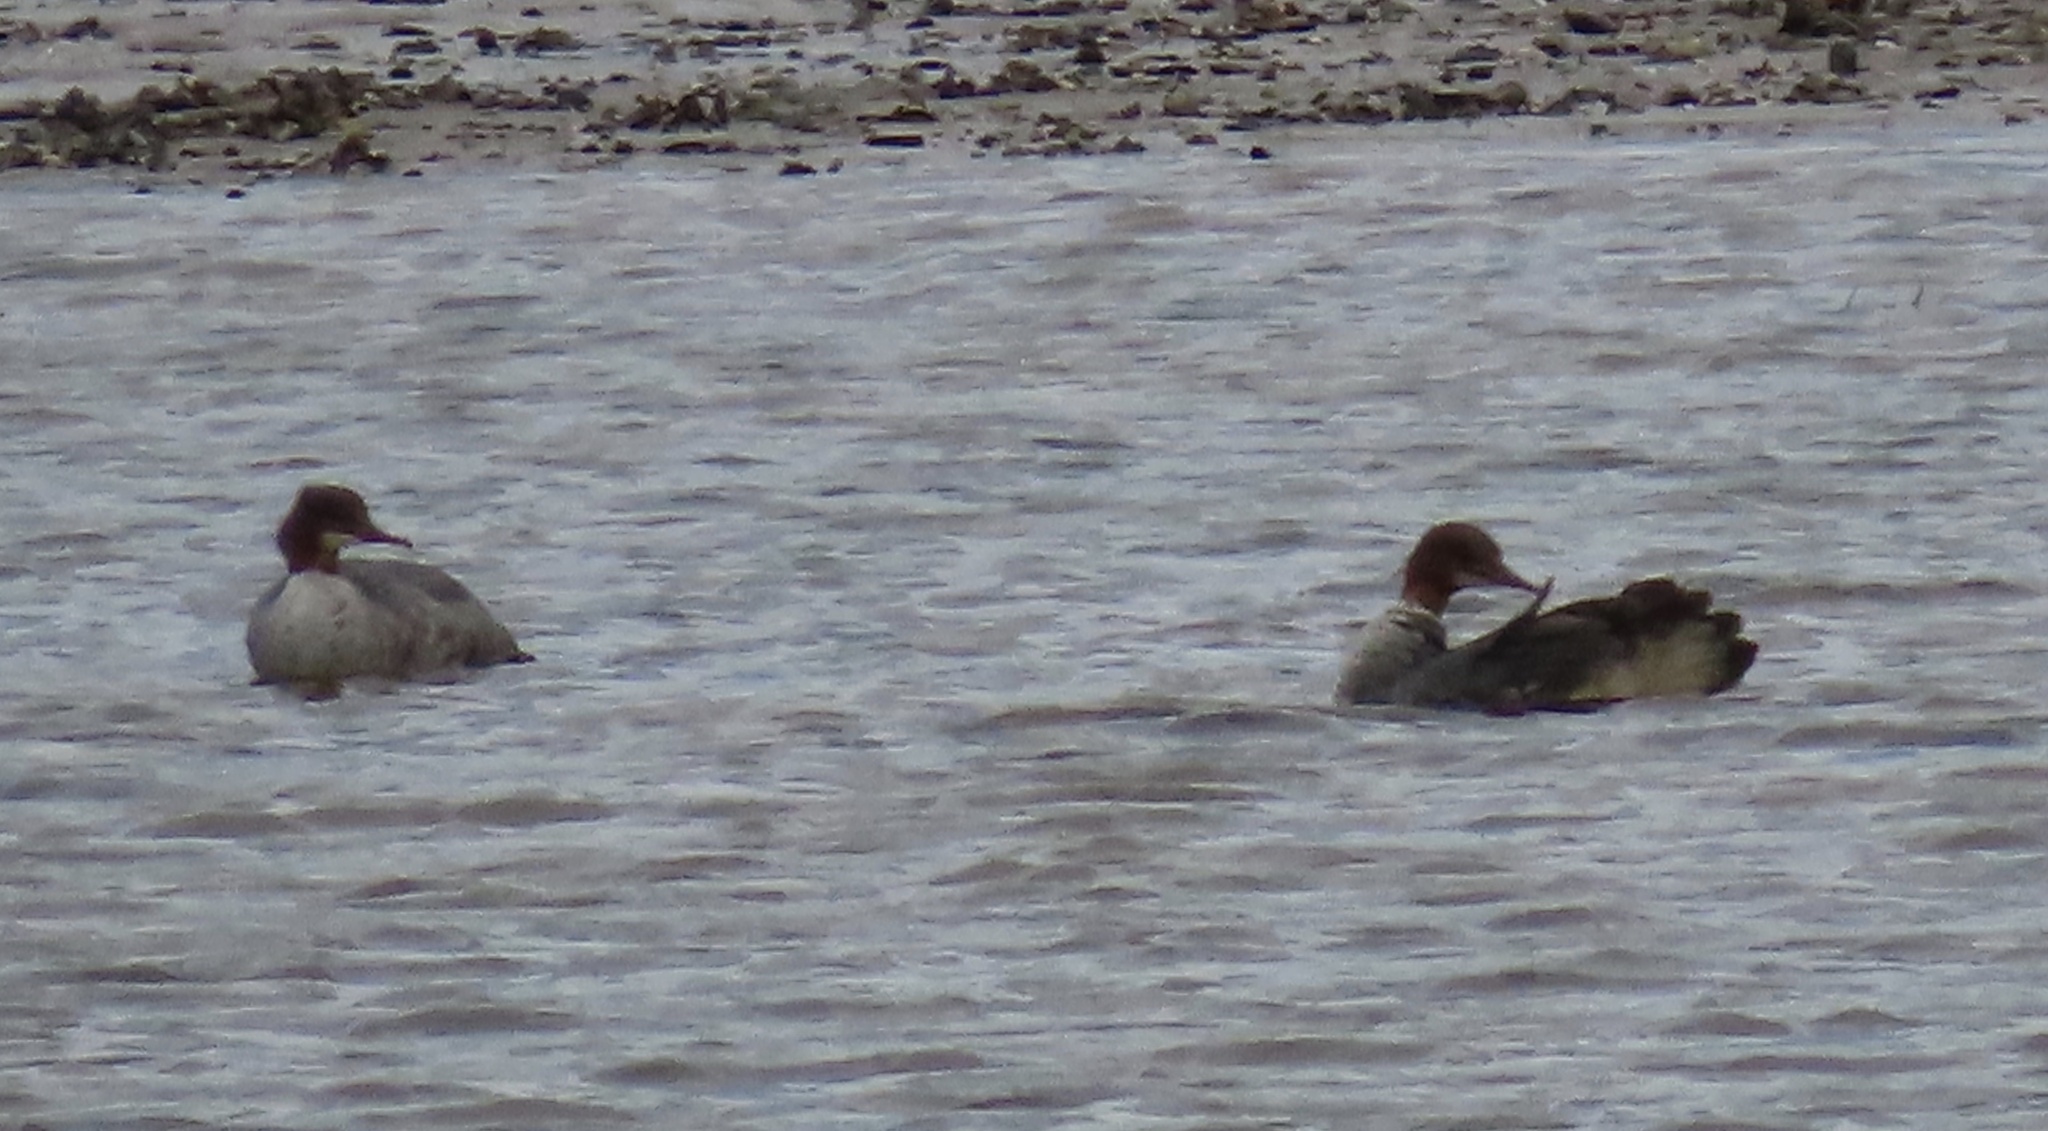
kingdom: Animalia
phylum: Chordata
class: Aves
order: Anseriformes
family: Anatidae
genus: Mergus
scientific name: Mergus merganser
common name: Common merganser
